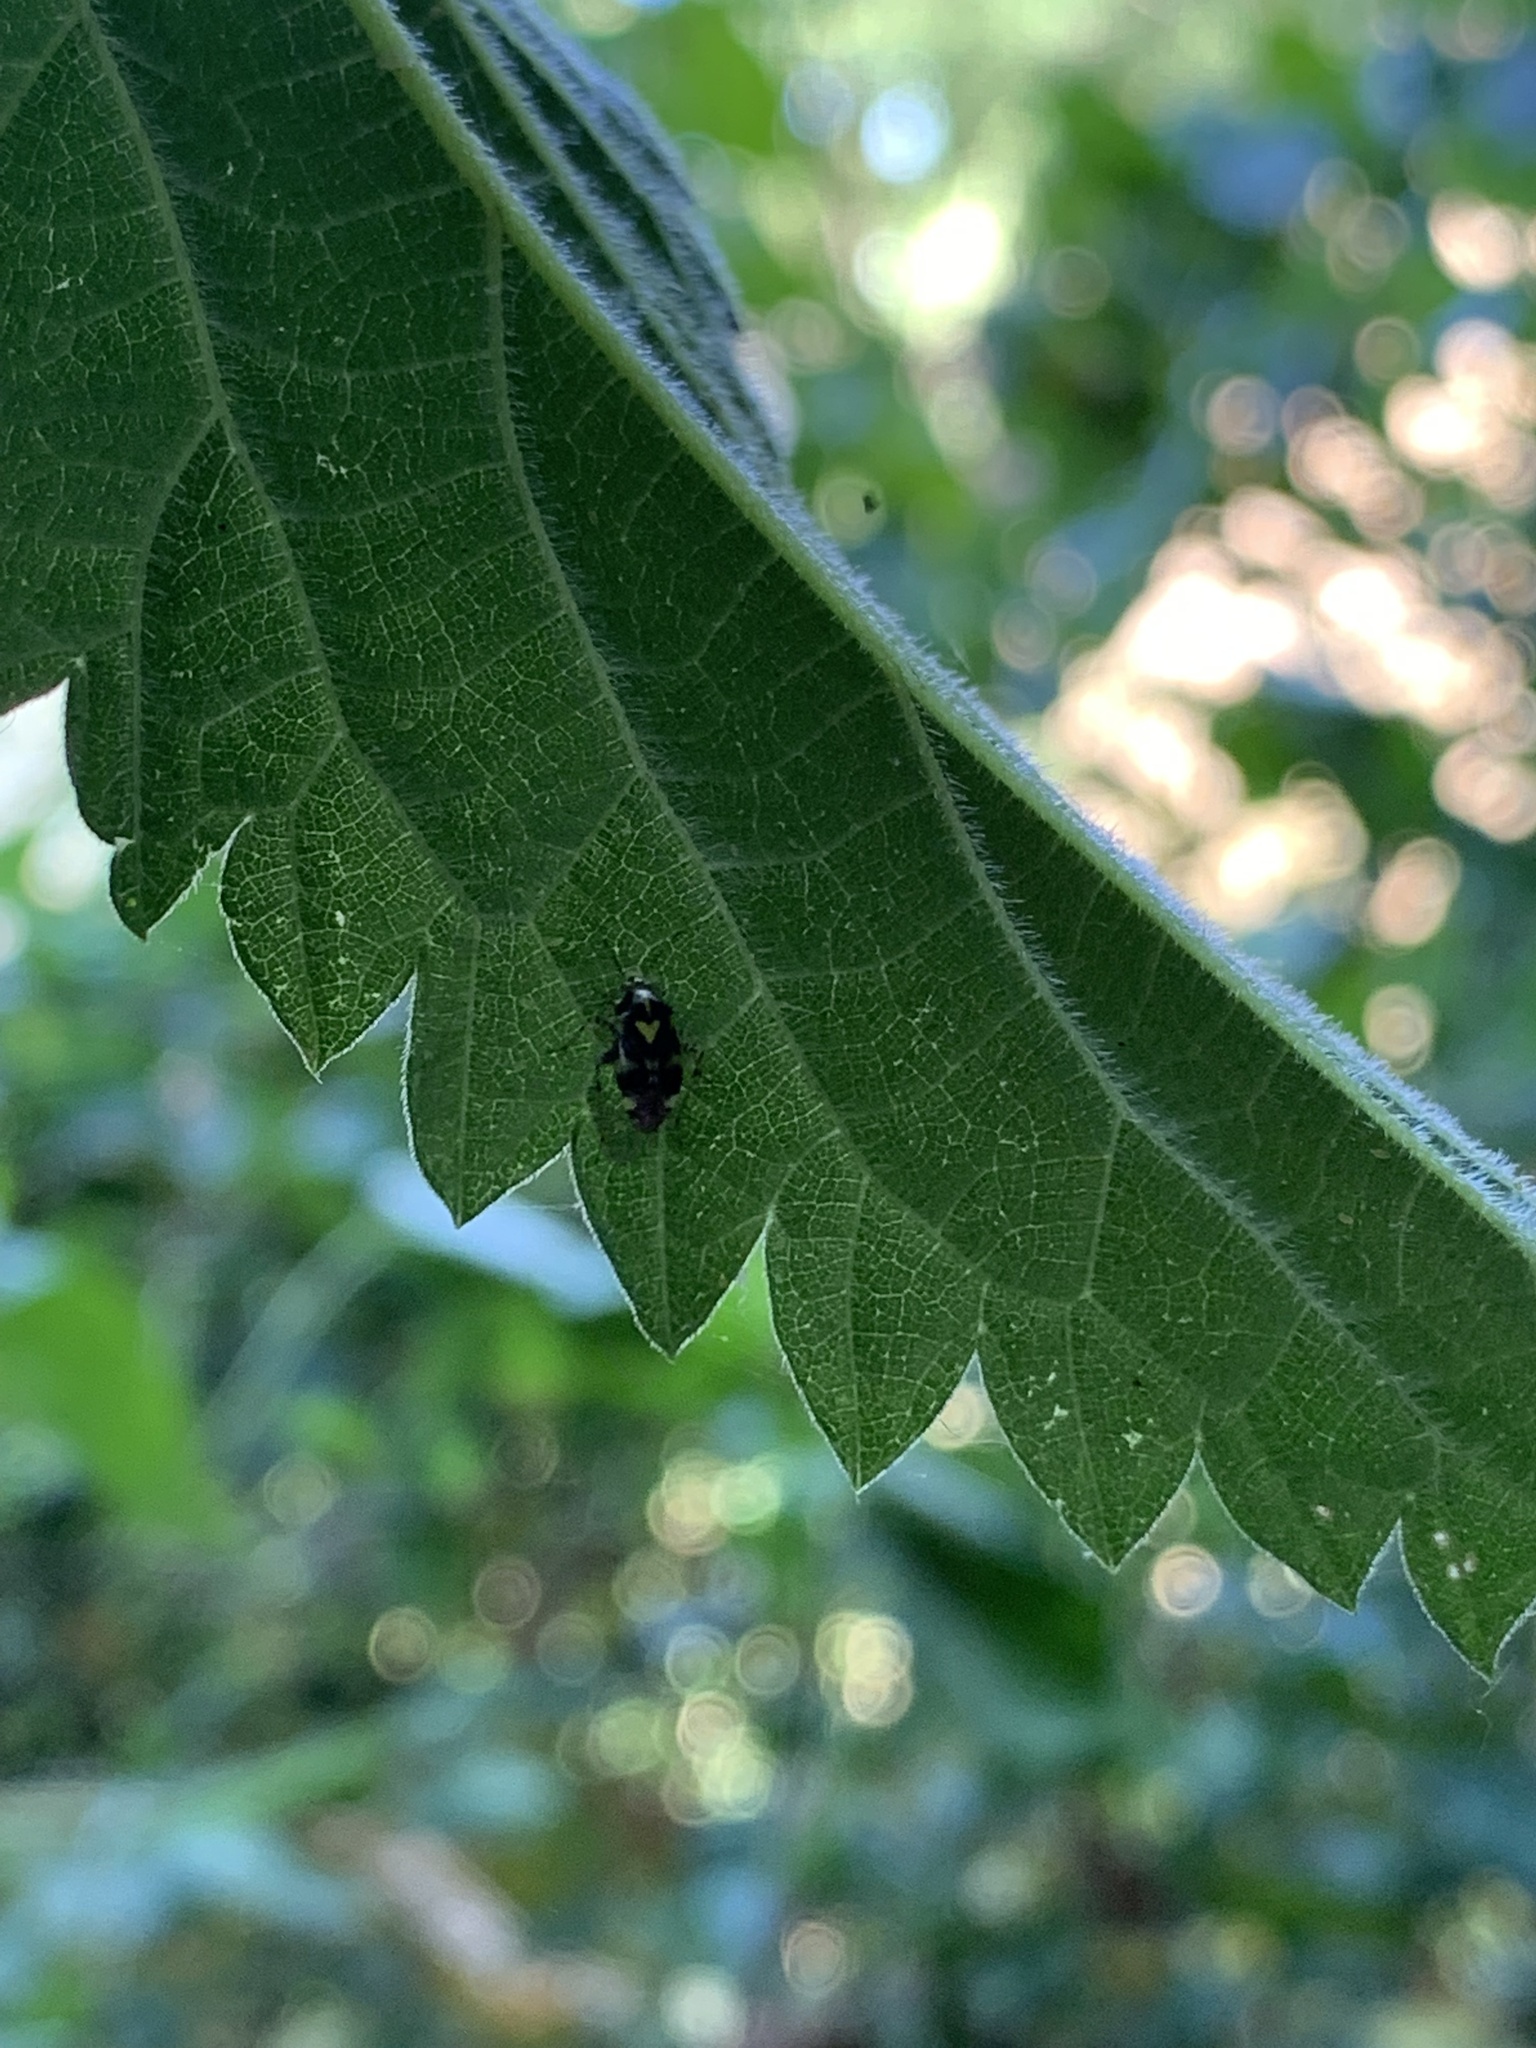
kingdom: Animalia
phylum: Arthropoda
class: Insecta
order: Hemiptera
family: Miridae
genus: Liocoris
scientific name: Liocoris tripustulatus
